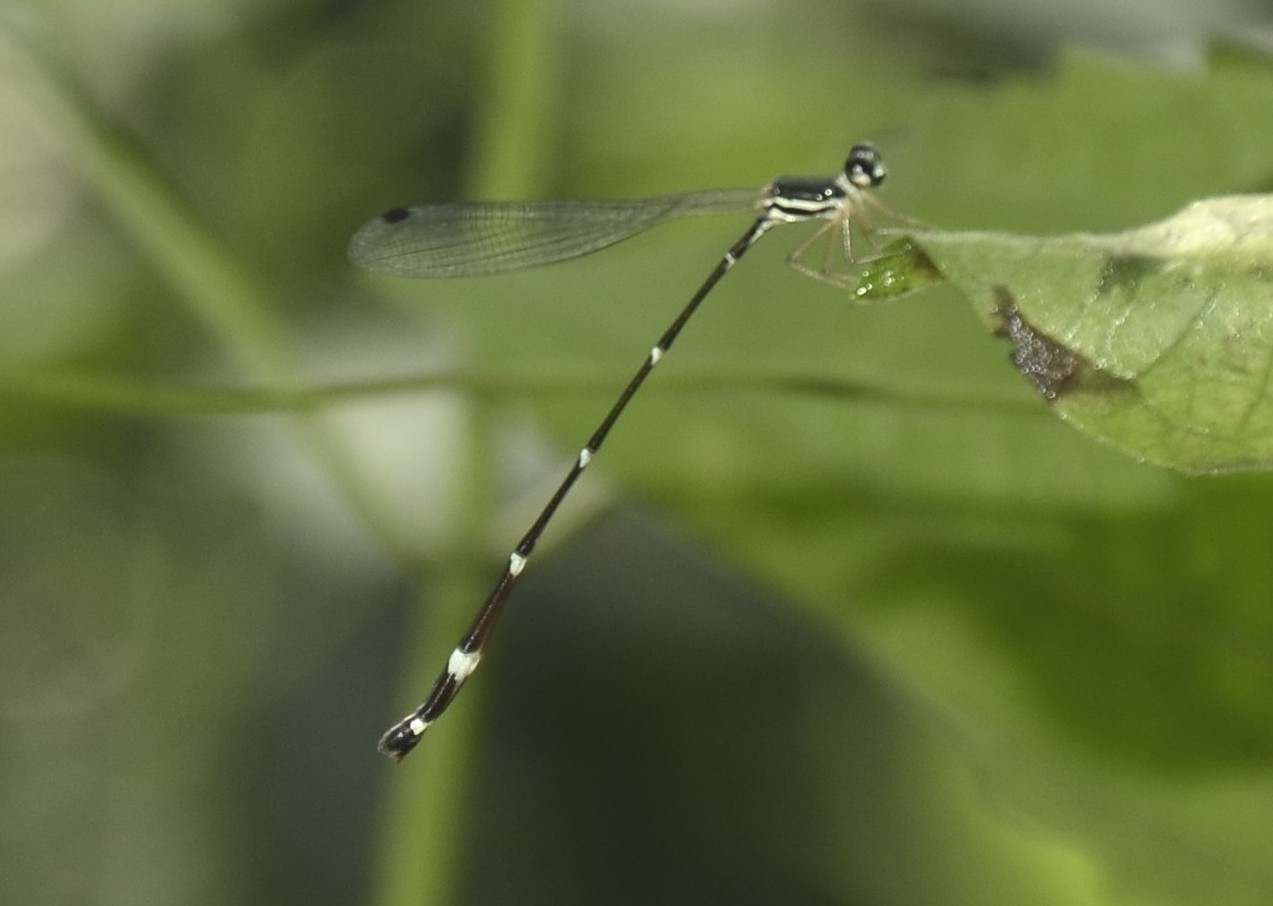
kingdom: Animalia
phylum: Arthropoda
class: Insecta
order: Odonata
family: Platystictidae
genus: Protosticta
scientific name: Protosticta gravelyi
